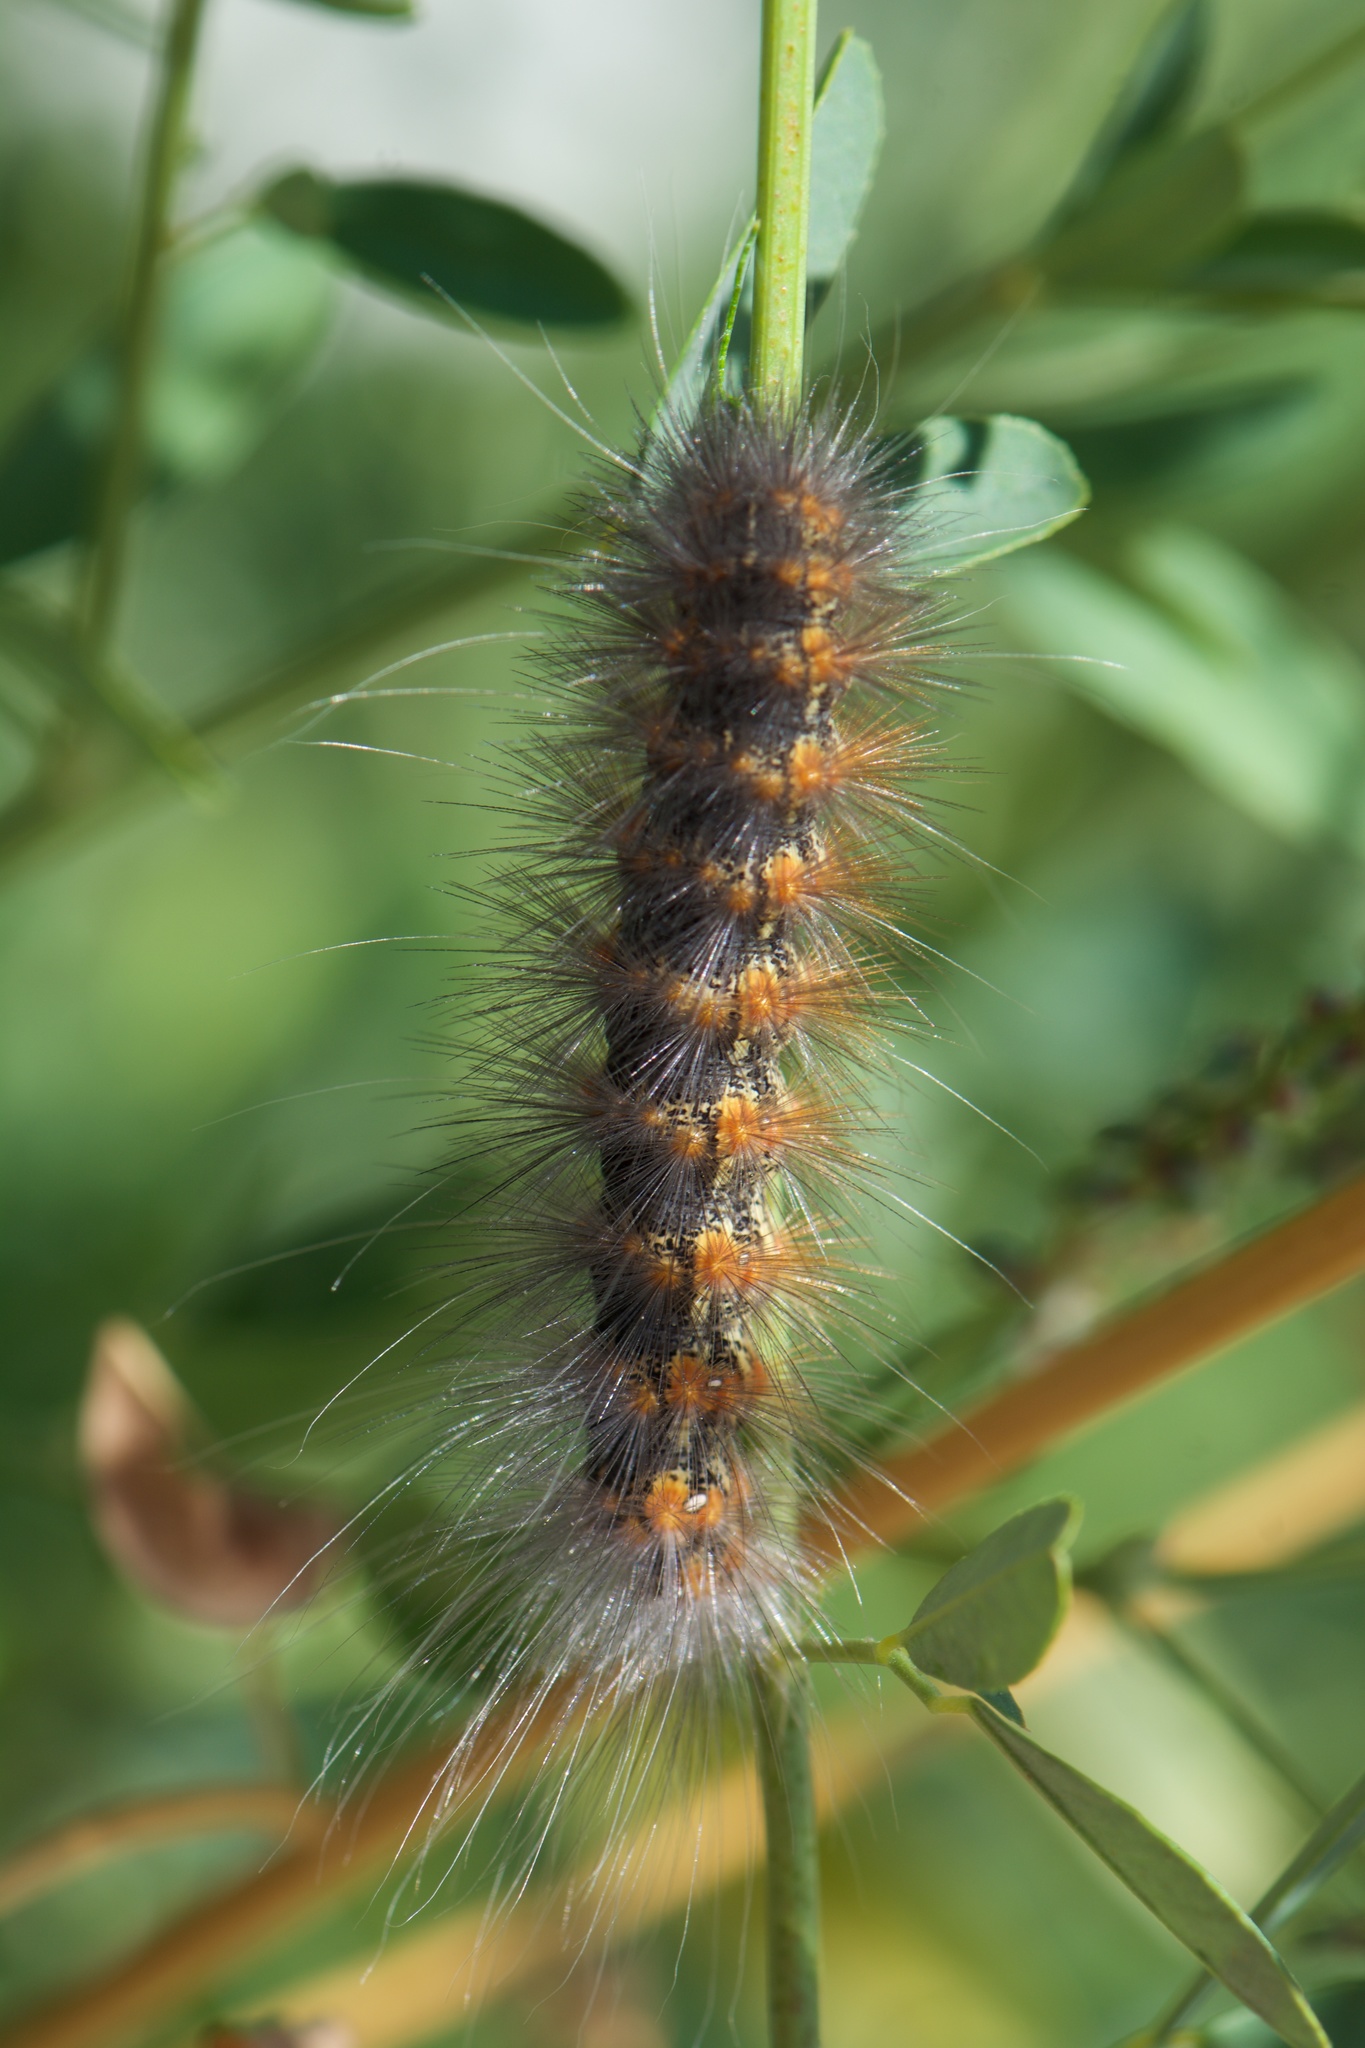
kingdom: Animalia
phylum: Arthropoda
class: Insecta
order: Lepidoptera
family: Erebidae
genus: Estigmene
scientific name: Estigmene acrea
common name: Salt marsh moth
